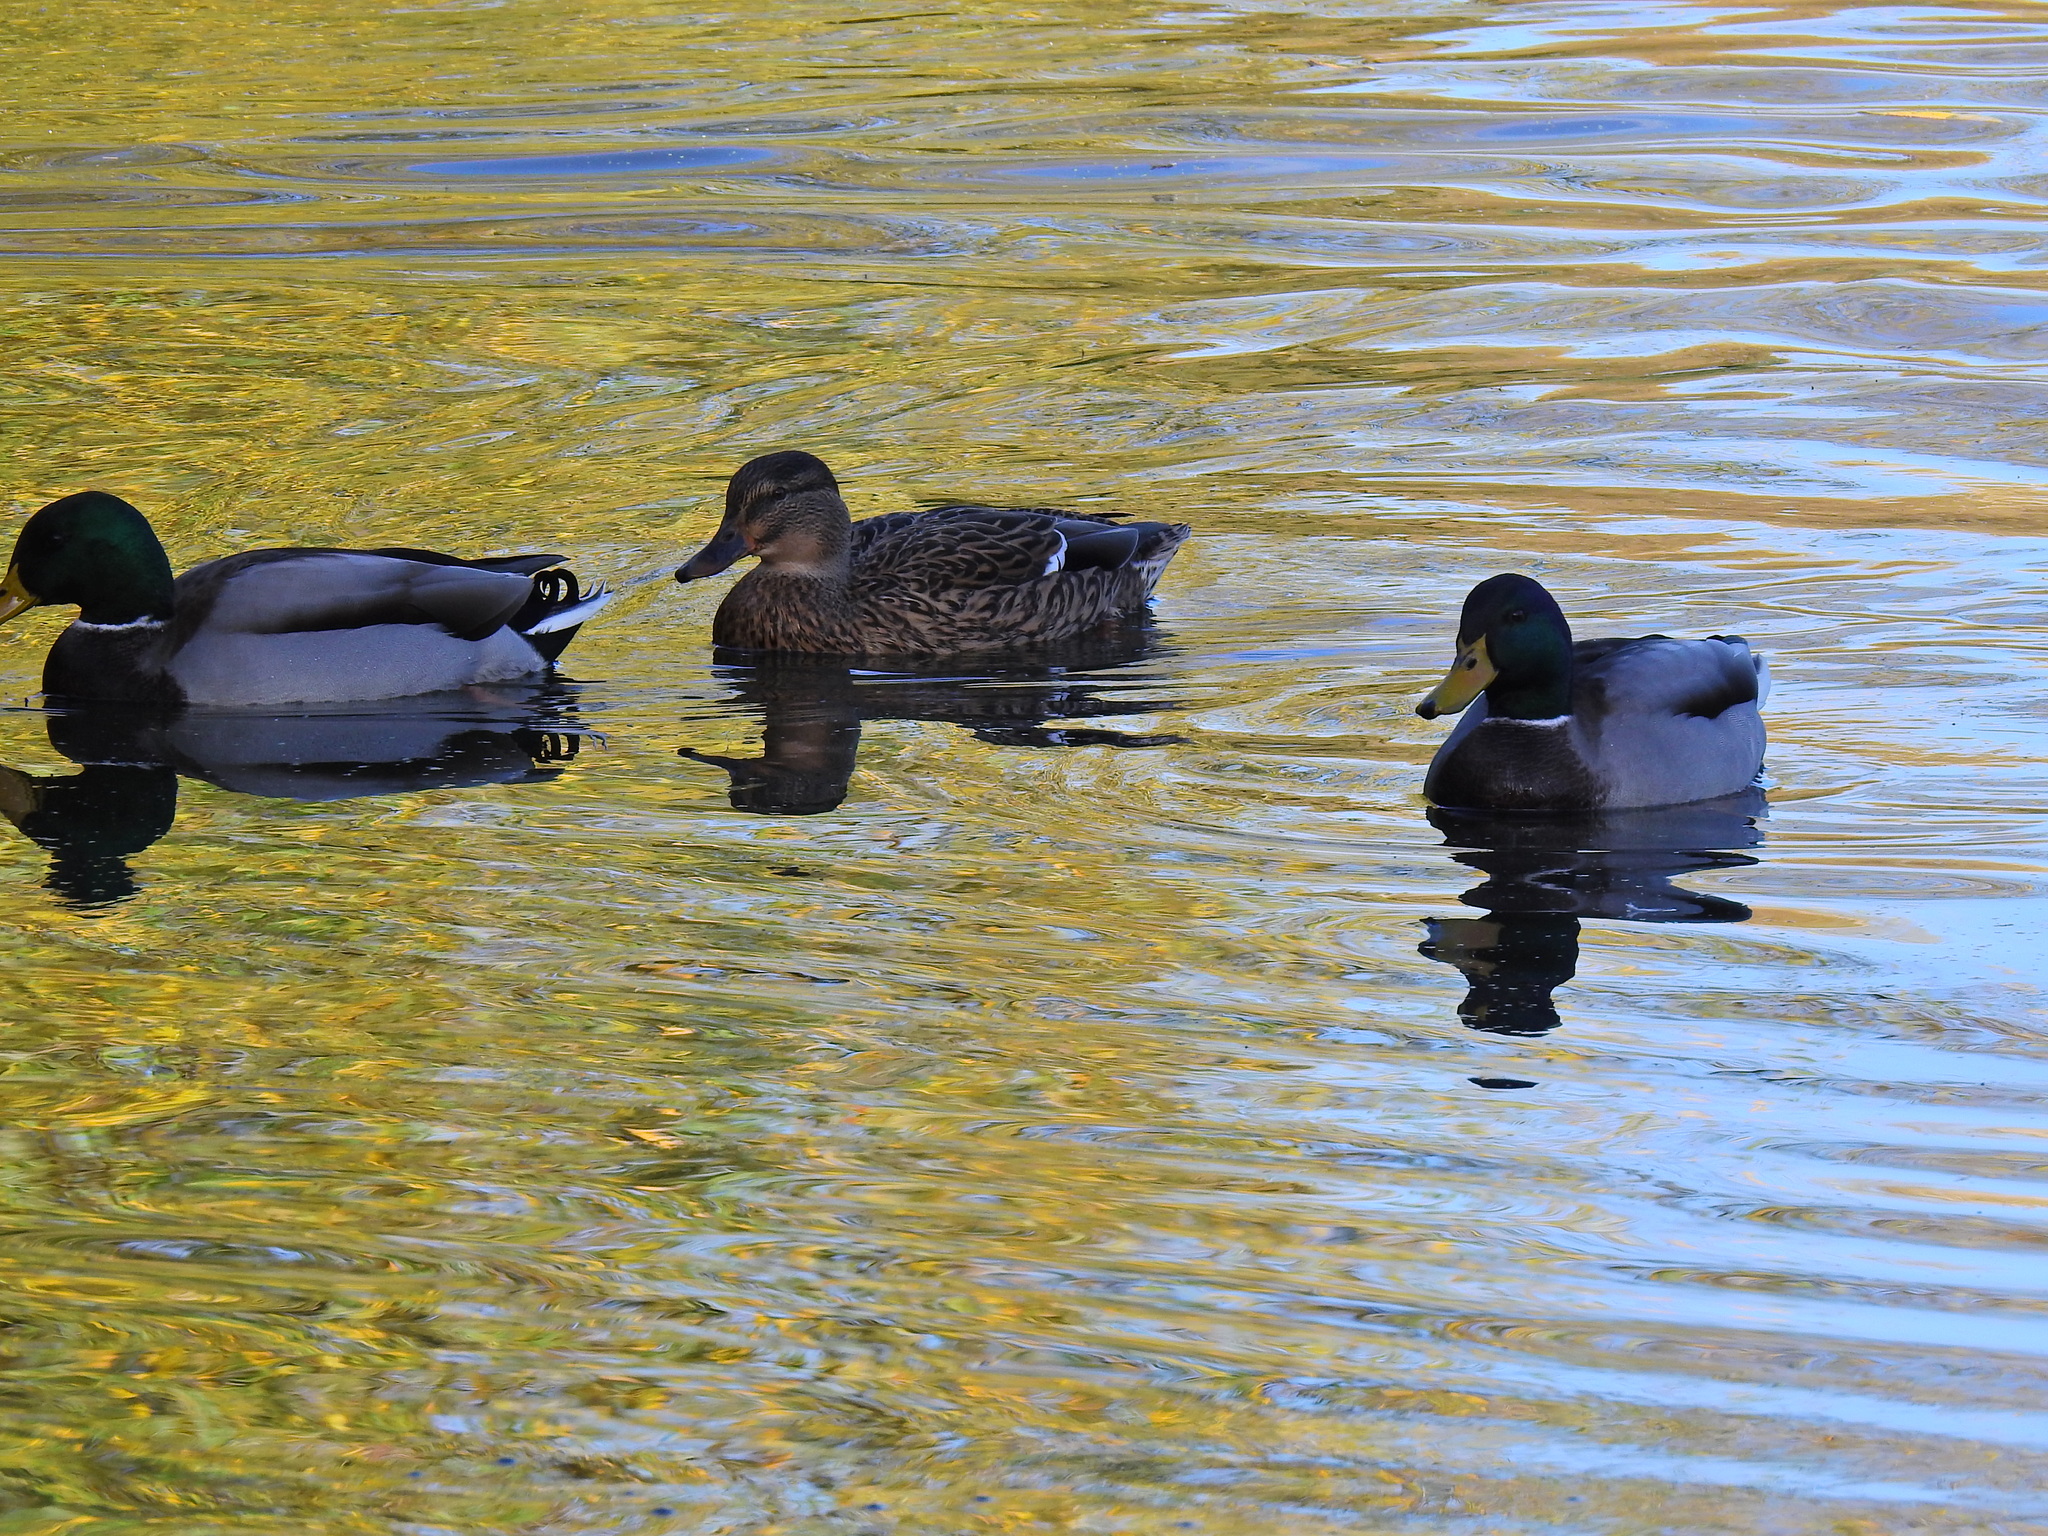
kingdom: Animalia
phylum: Chordata
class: Aves
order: Anseriformes
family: Anatidae
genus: Anas
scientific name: Anas platyrhynchos
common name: Mallard
